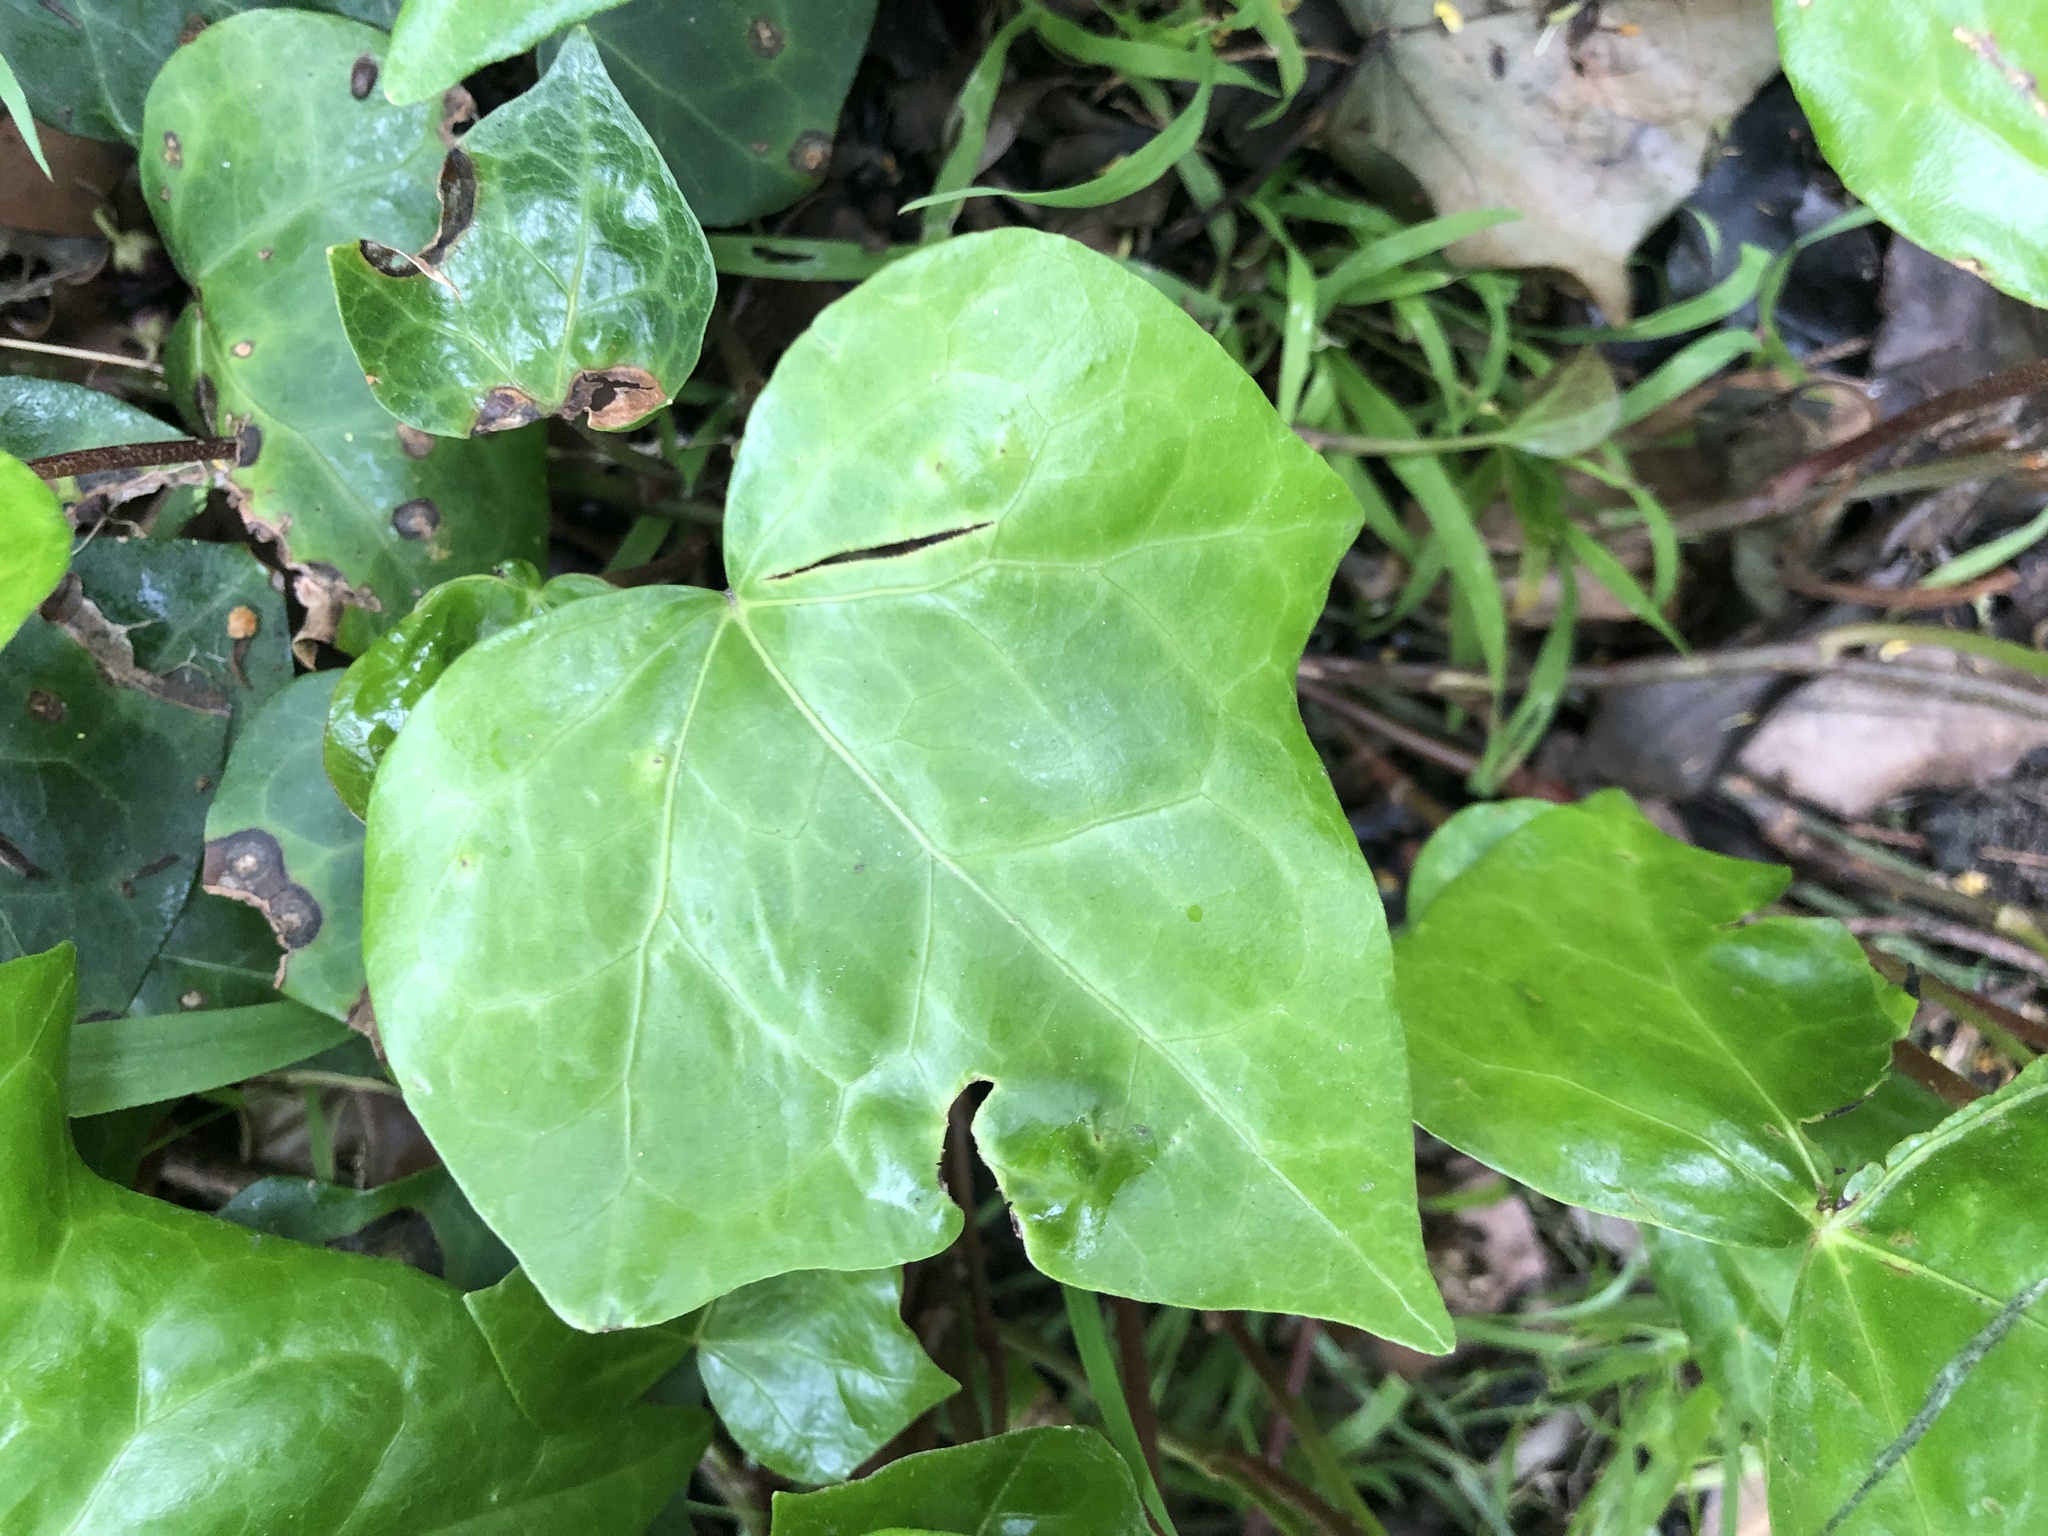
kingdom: Plantae
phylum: Tracheophyta
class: Magnoliopsida
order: Apiales
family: Araliaceae
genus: Hedera
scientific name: Hedera helix
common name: Ivy
